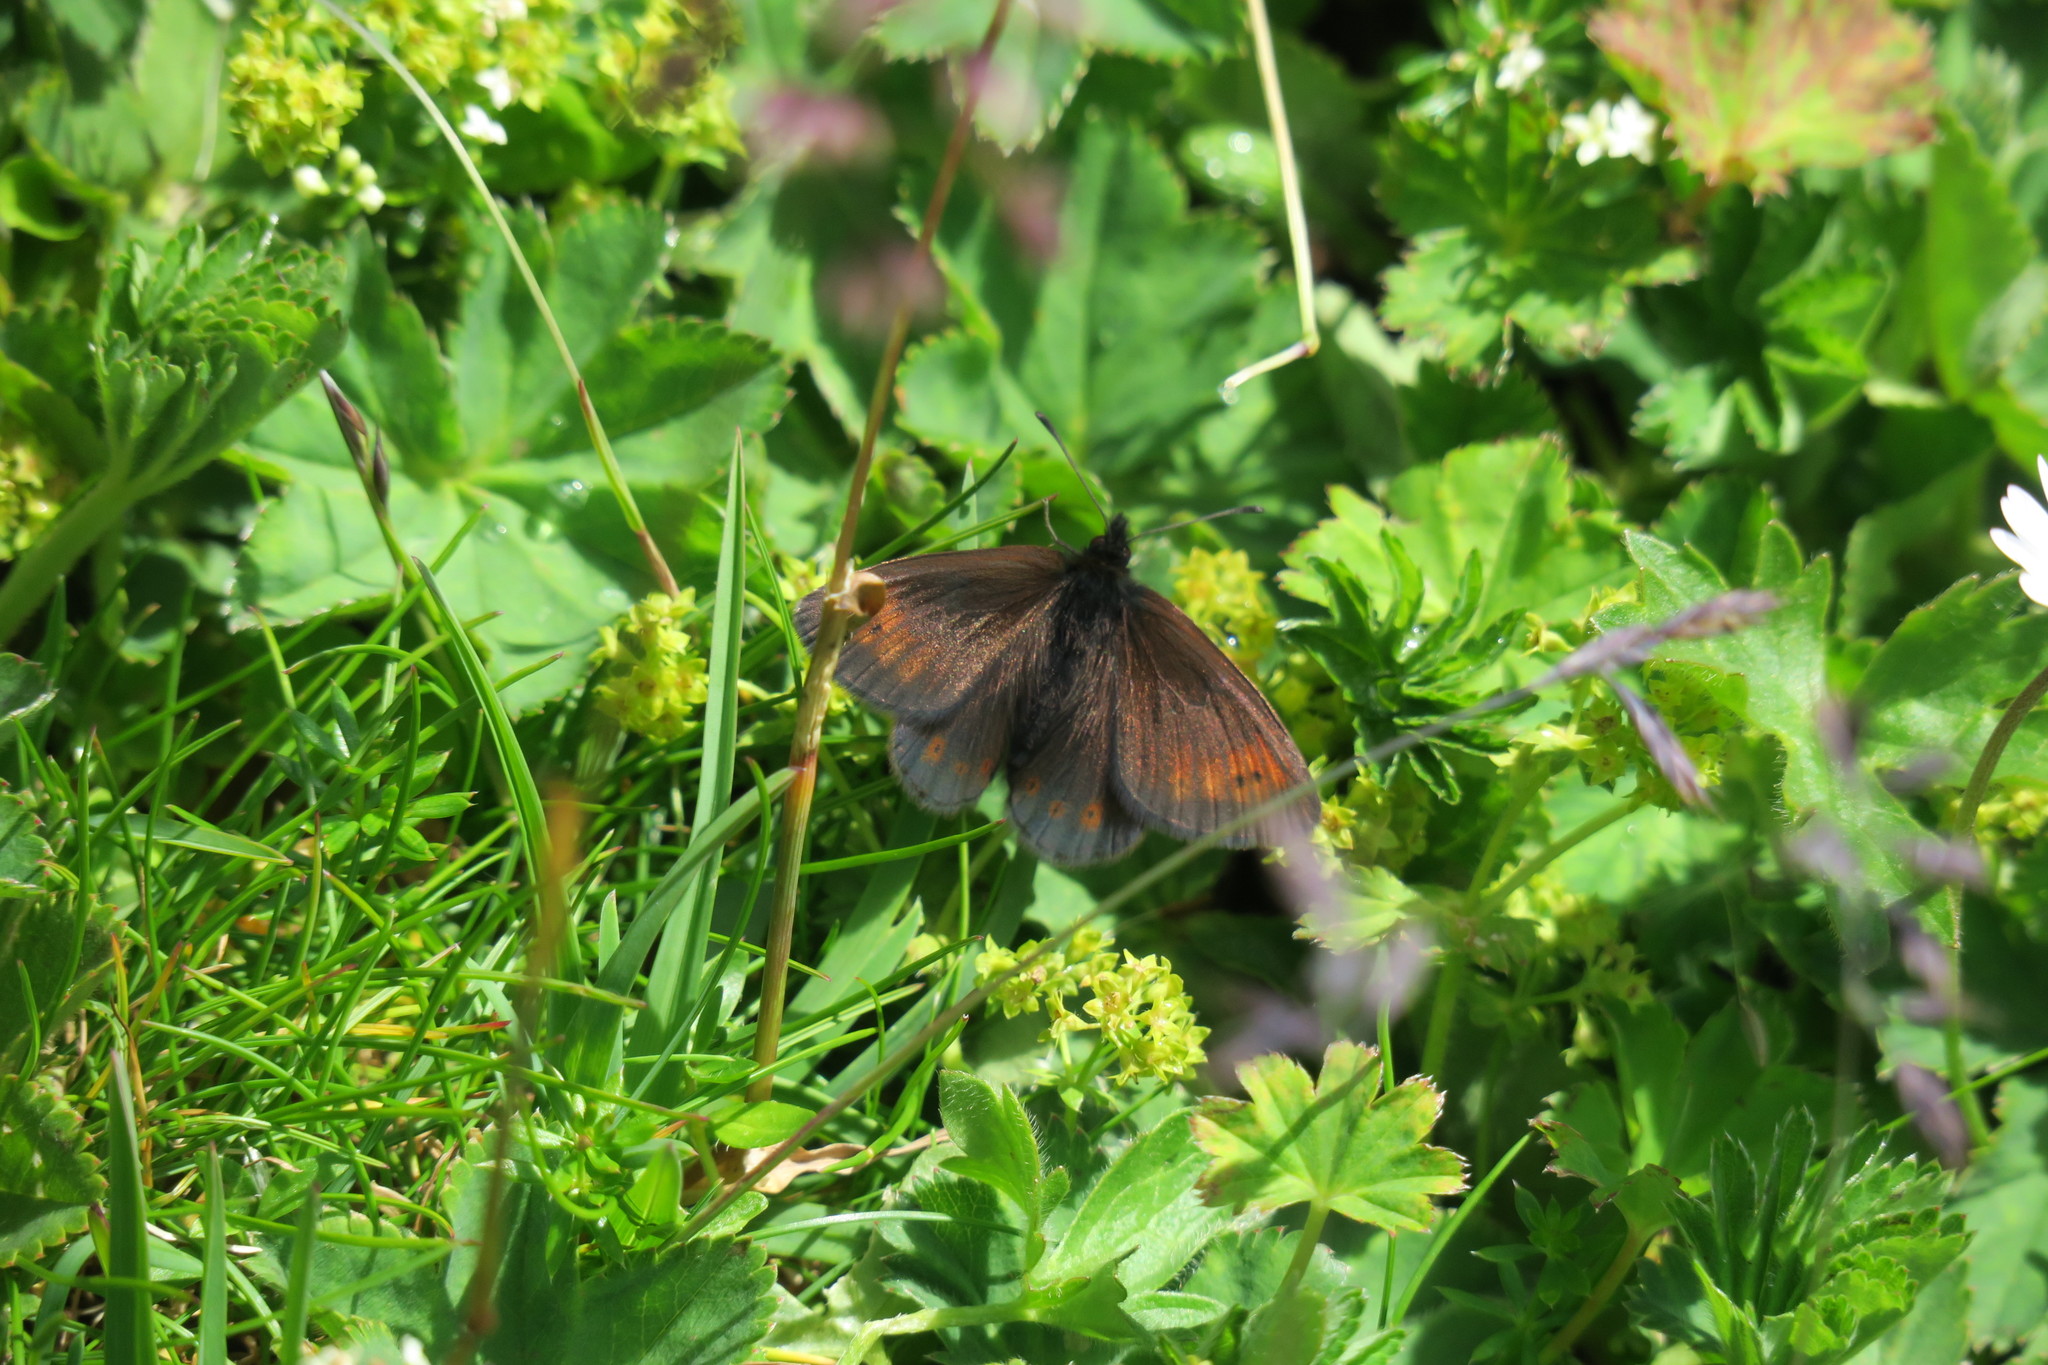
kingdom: Animalia
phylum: Arthropoda
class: Insecta
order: Lepidoptera
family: Nymphalidae
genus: Erebia
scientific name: Erebia epiphron
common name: Mountain ringlet
